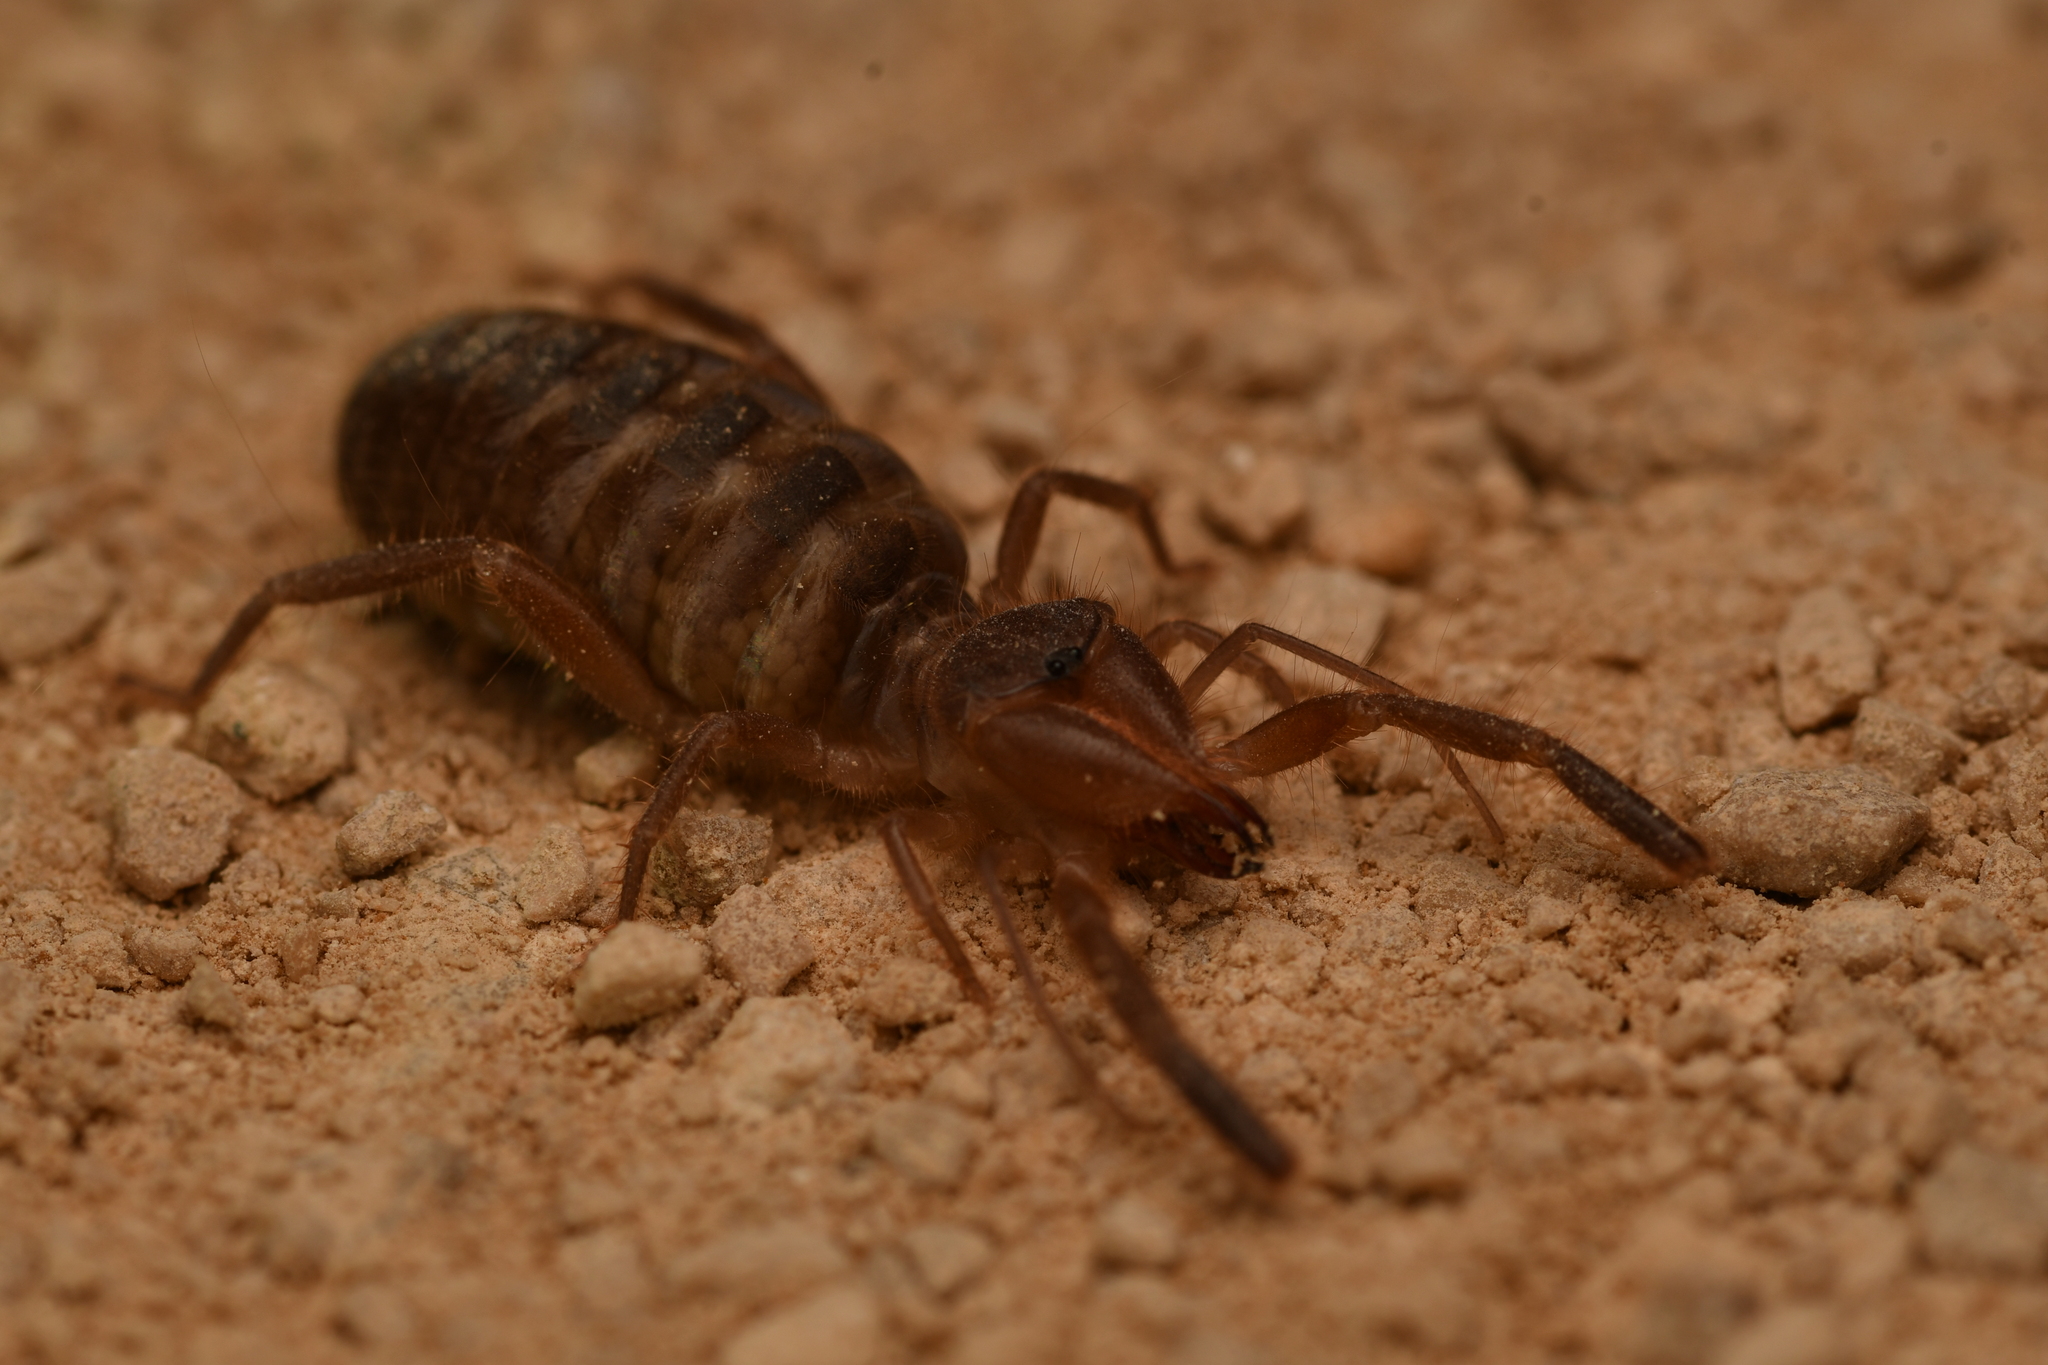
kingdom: Animalia
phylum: Arthropoda
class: Arachnida
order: Solifugae
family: Daesiidae
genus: Gluvia
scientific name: Gluvia dorsalis
